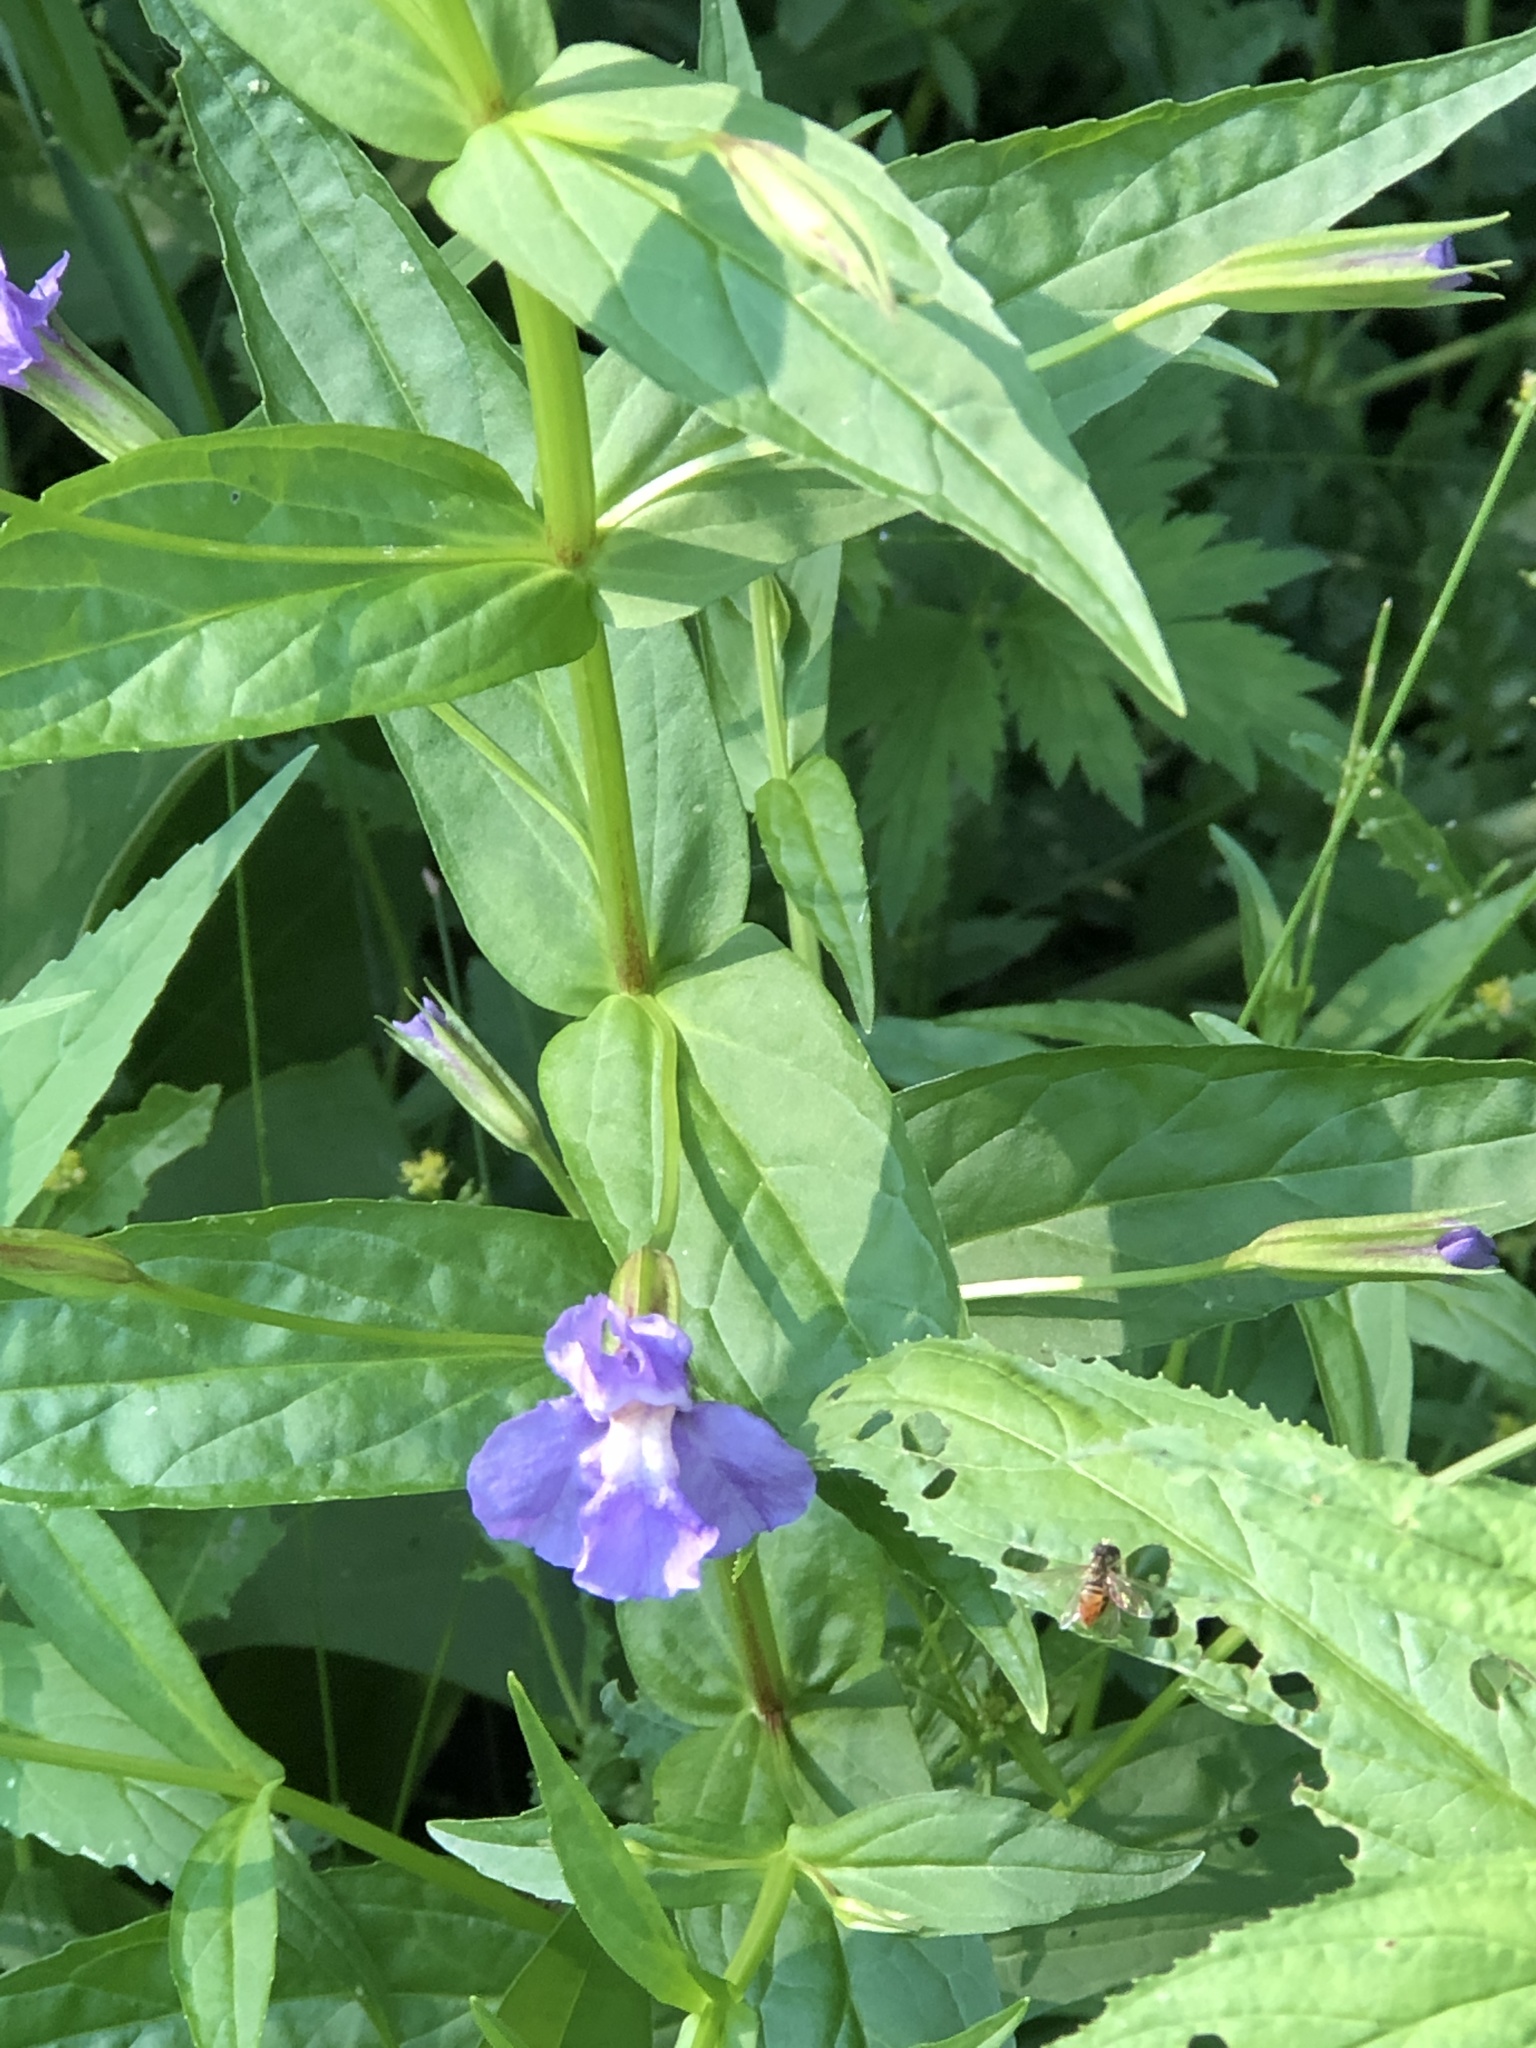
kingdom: Plantae
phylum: Tracheophyta
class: Magnoliopsida
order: Lamiales
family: Phrymaceae
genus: Mimulus
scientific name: Mimulus ringens
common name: Allegheny monkeyflower
